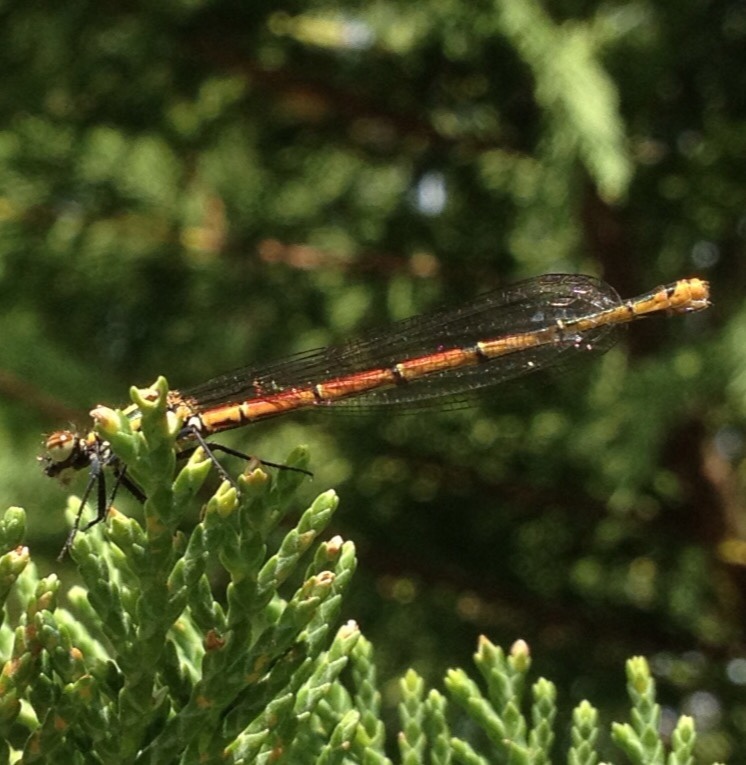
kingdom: Animalia
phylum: Arthropoda
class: Insecta
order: Odonata
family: Coenagrionidae
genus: Pyrrhosoma
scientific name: Pyrrhosoma nymphula
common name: Large red damsel
